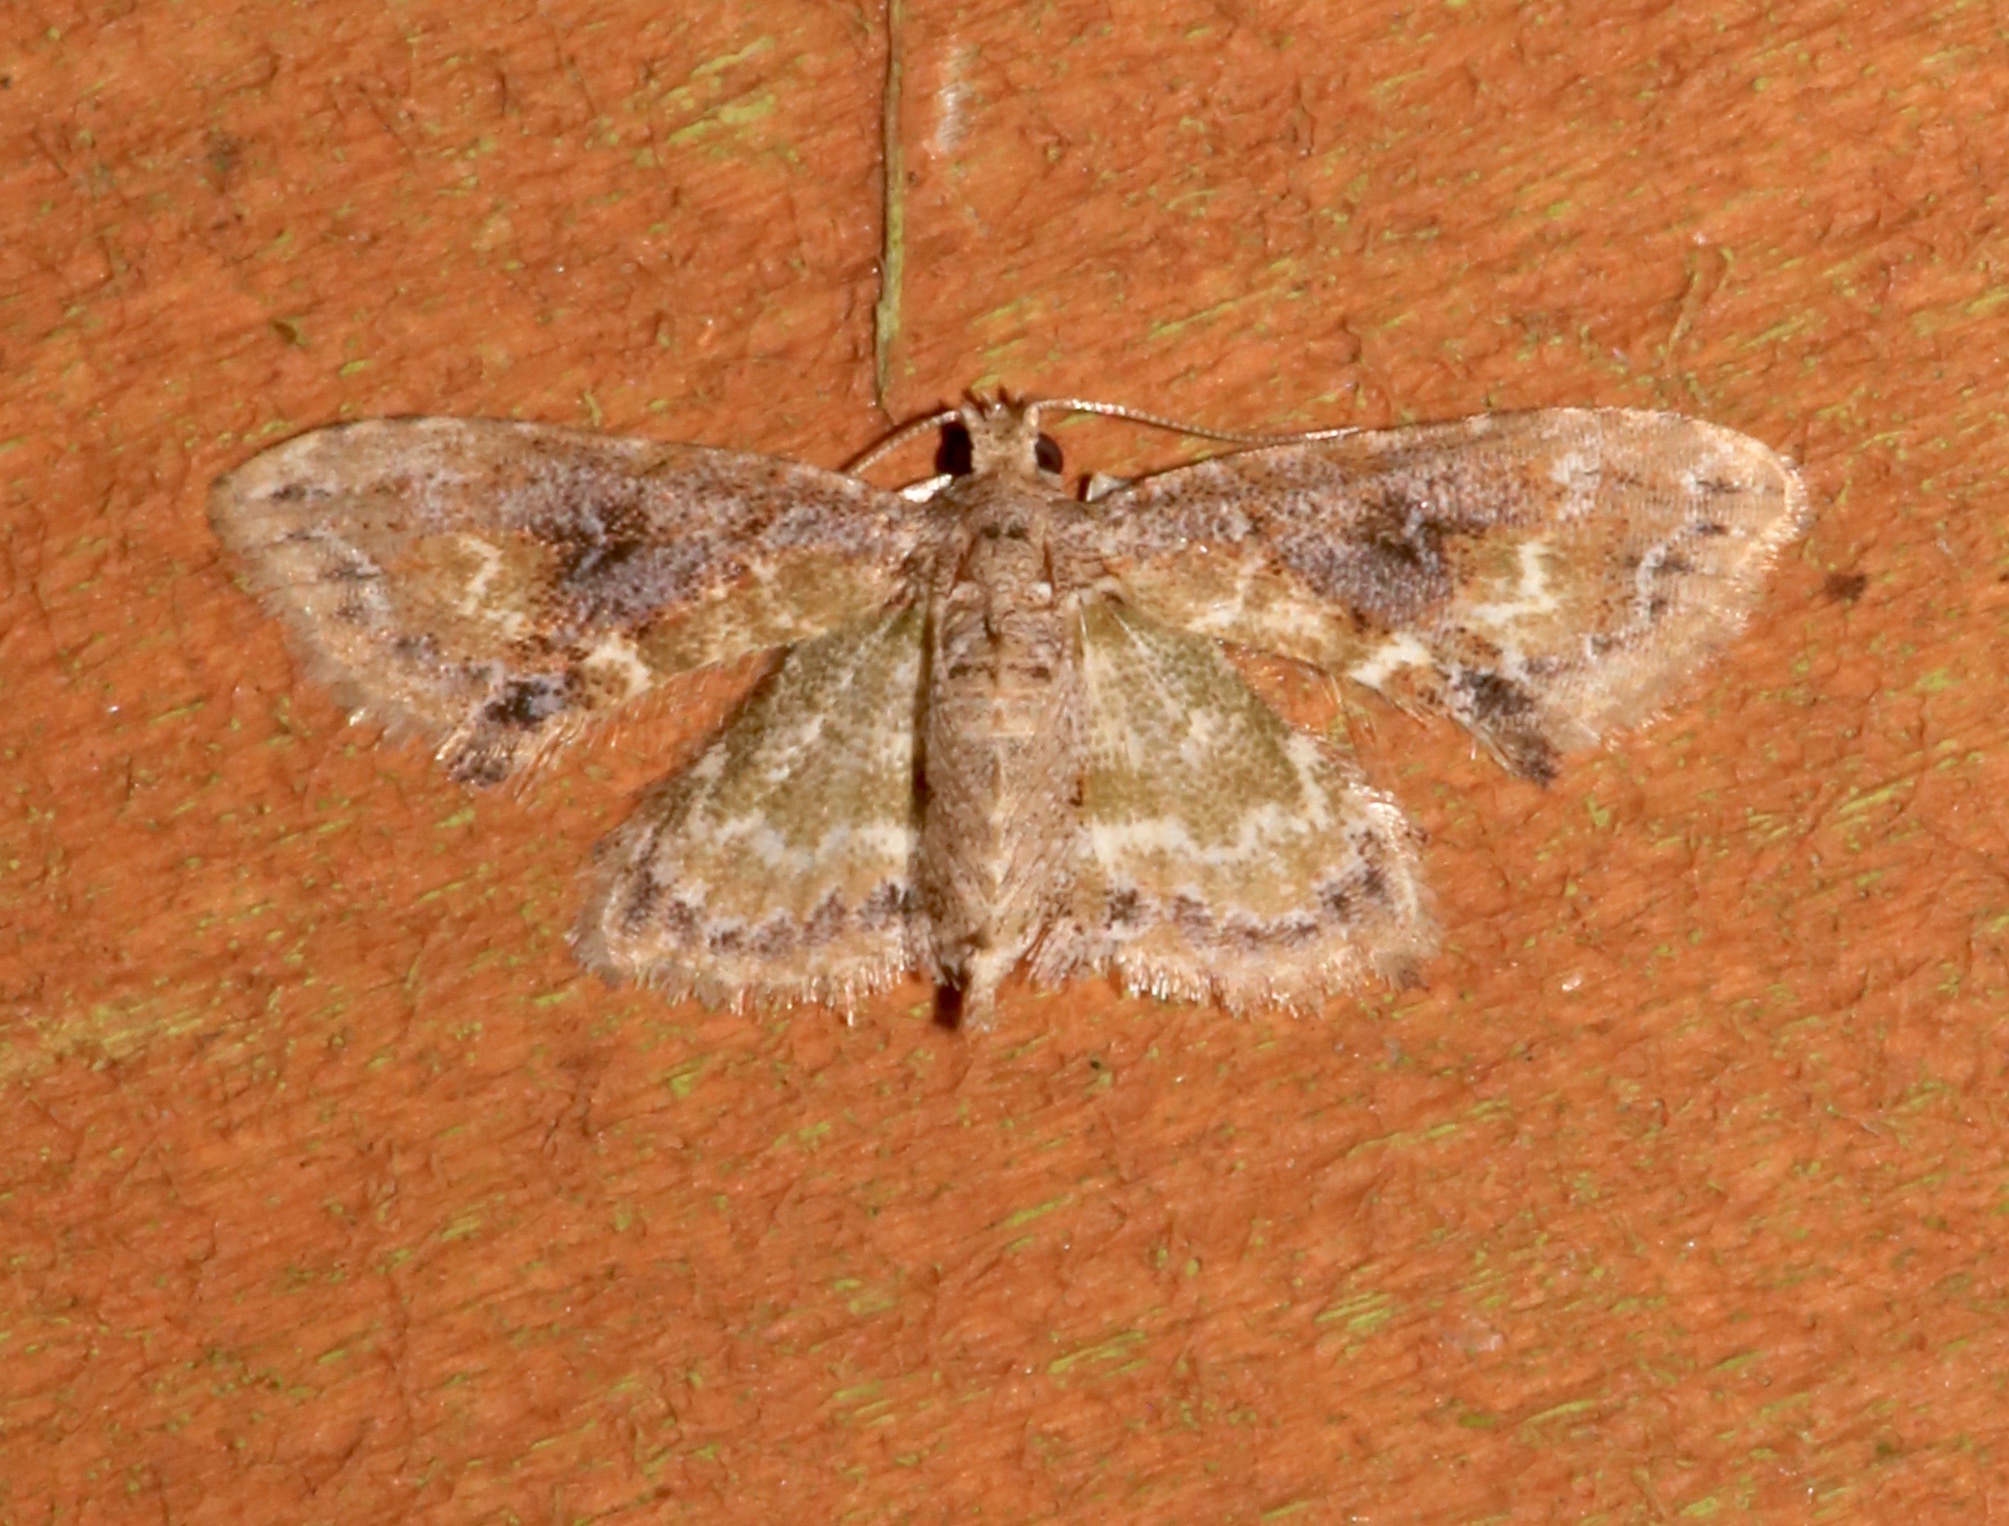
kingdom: Animalia
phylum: Arthropoda
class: Insecta
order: Lepidoptera
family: Erebidae
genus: Sigela
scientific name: Sigela sordes
